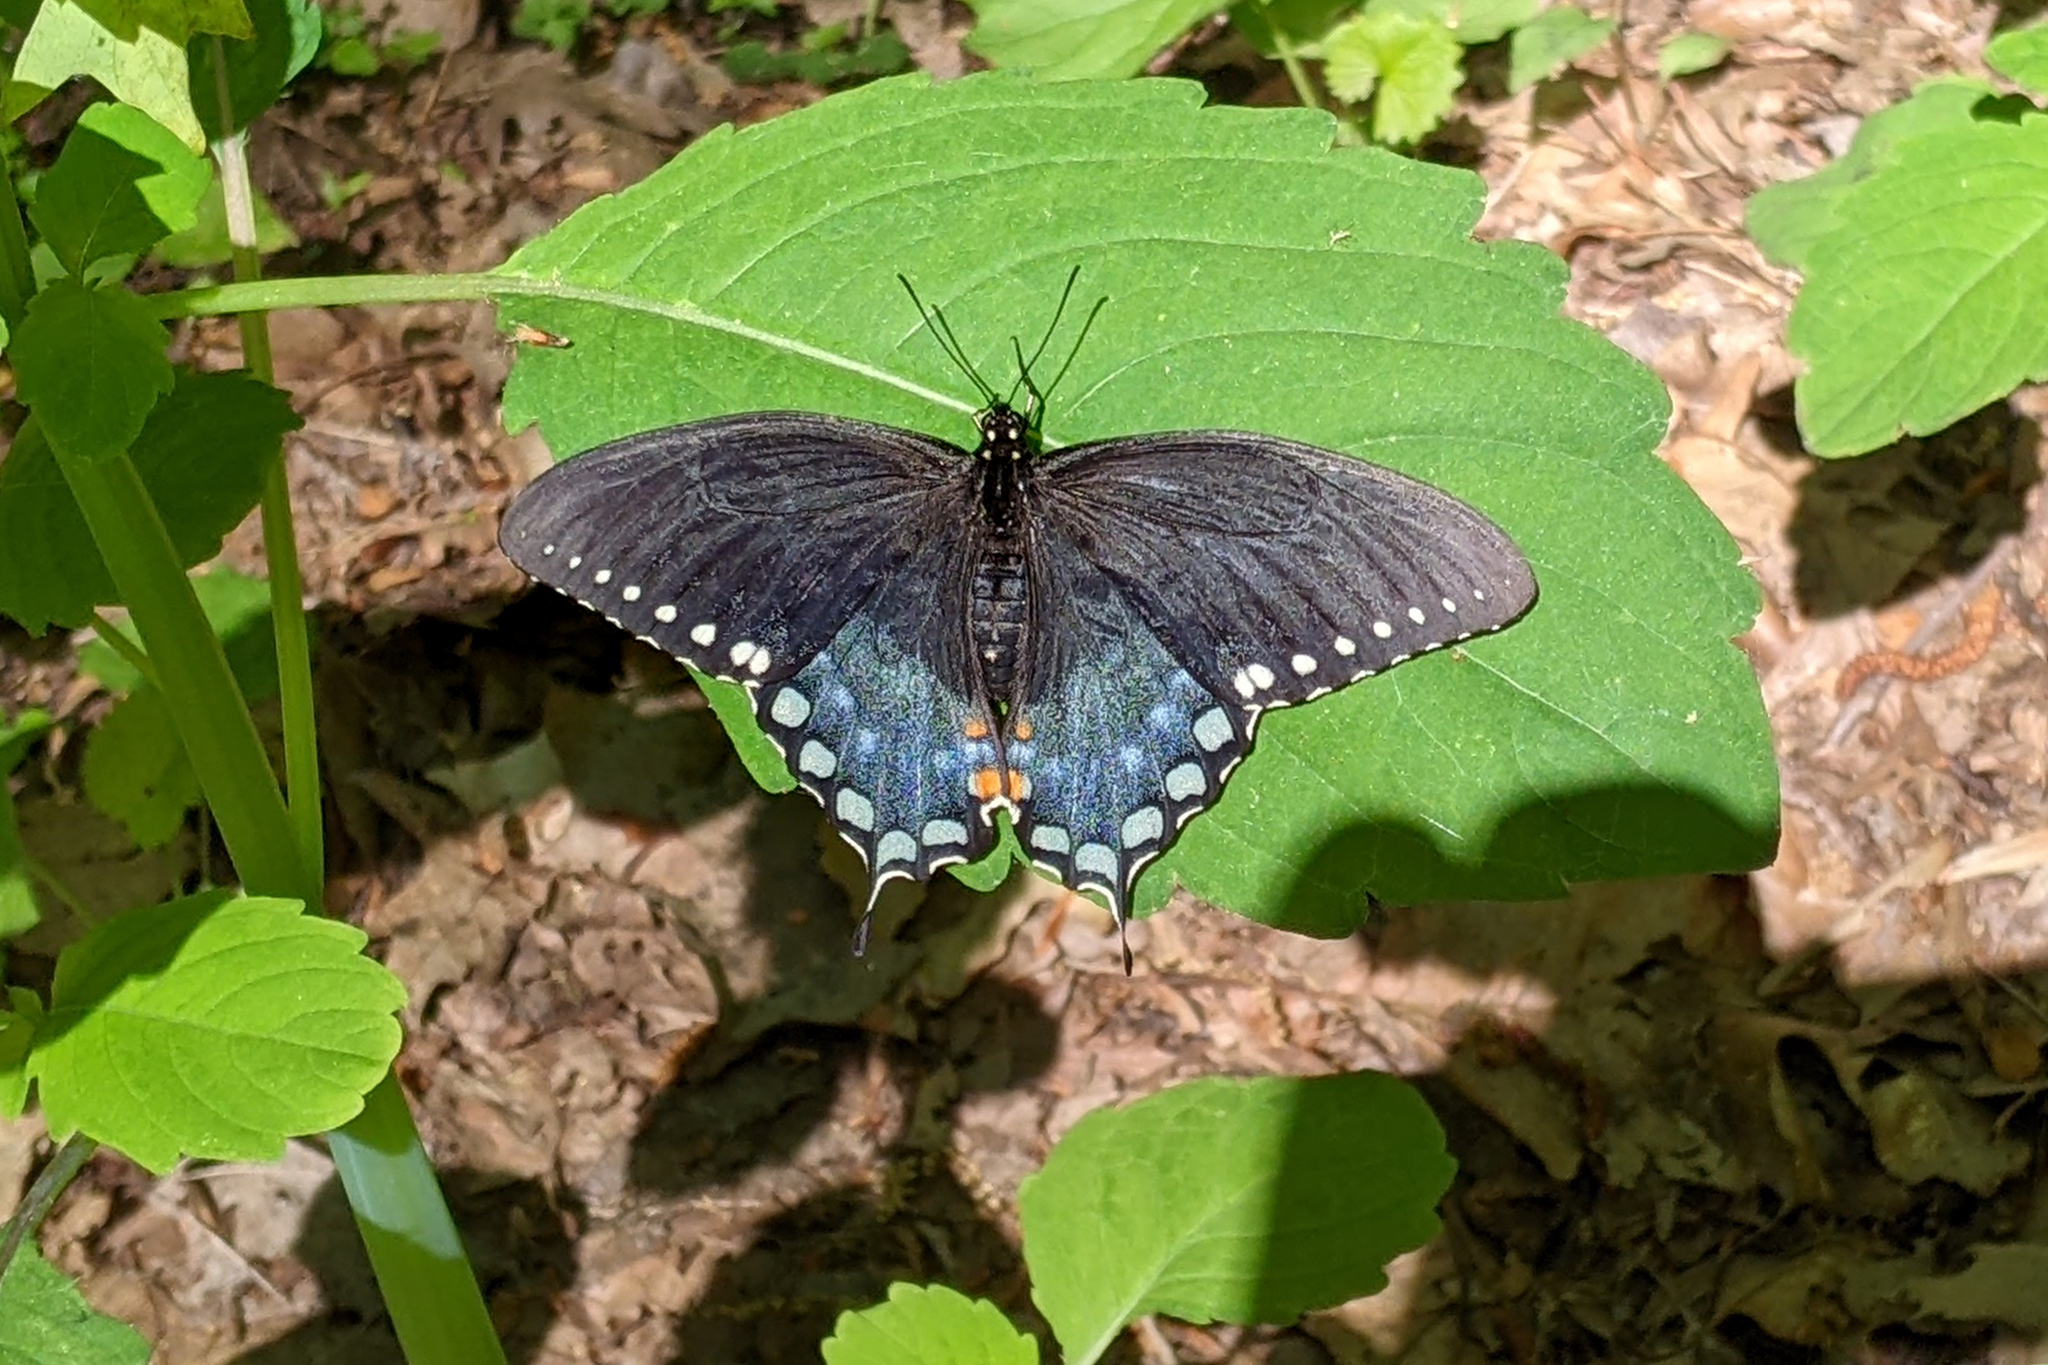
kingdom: Animalia
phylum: Arthropoda
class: Insecta
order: Lepidoptera
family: Papilionidae
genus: Papilio
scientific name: Papilio troilus
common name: Spicebush swallowtail
